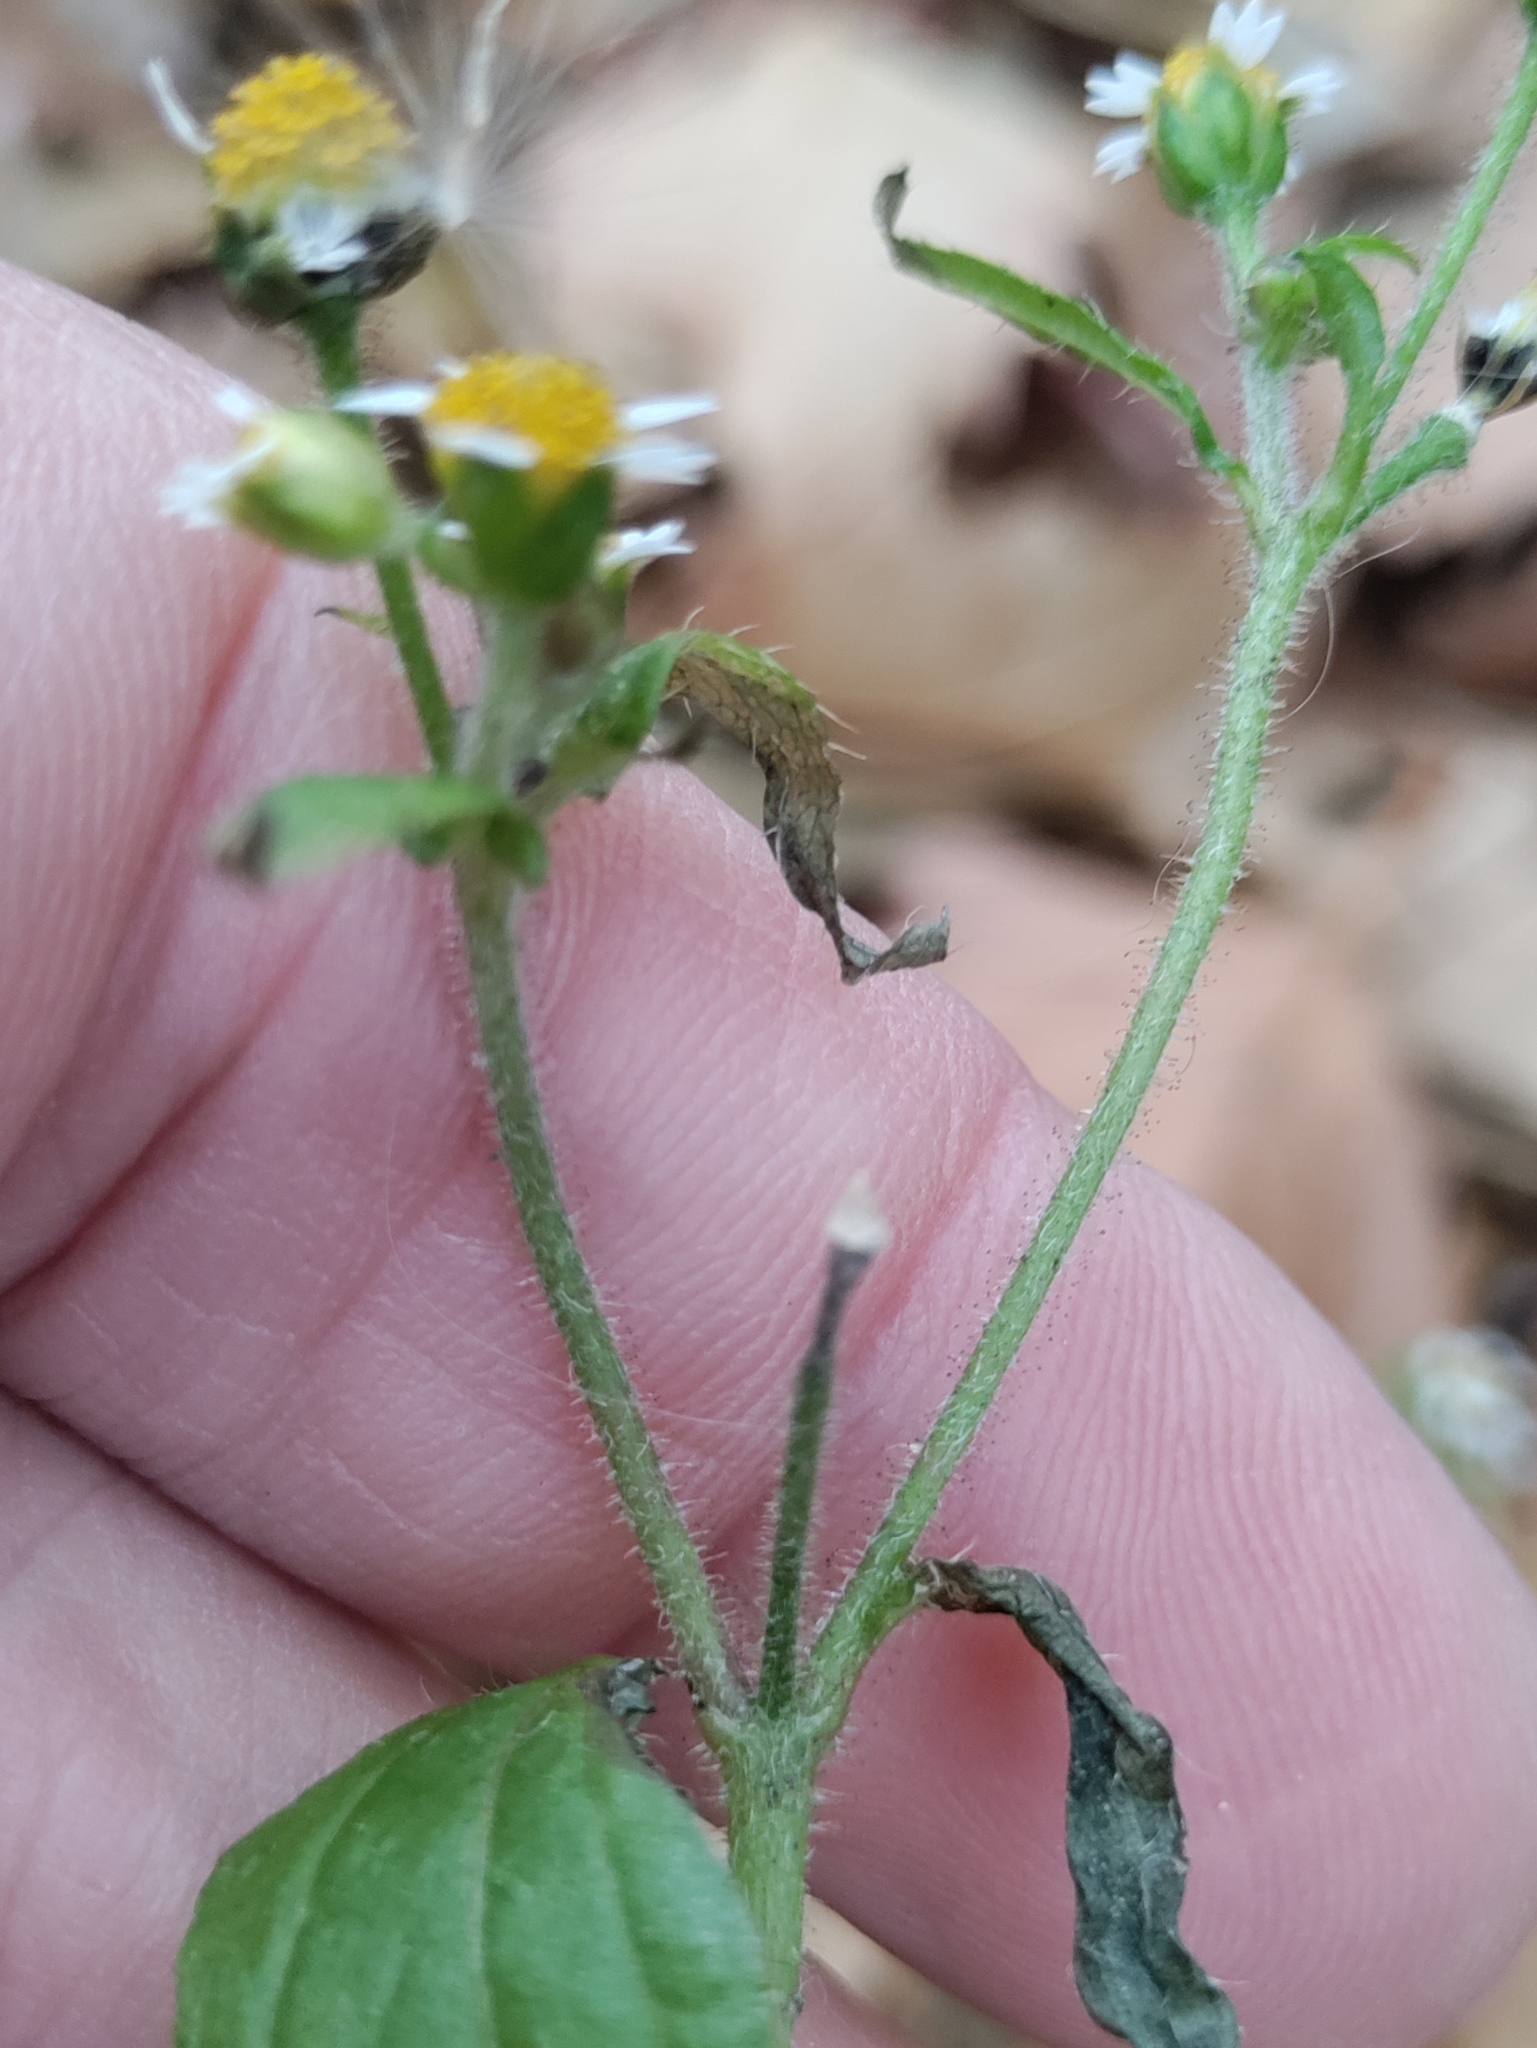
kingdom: Plantae
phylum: Tracheophyta
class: Magnoliopsida
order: Asterales
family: Asteraceae
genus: Galinsoga
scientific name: Galinsoga quadriradiata
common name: Shaggy soldier
